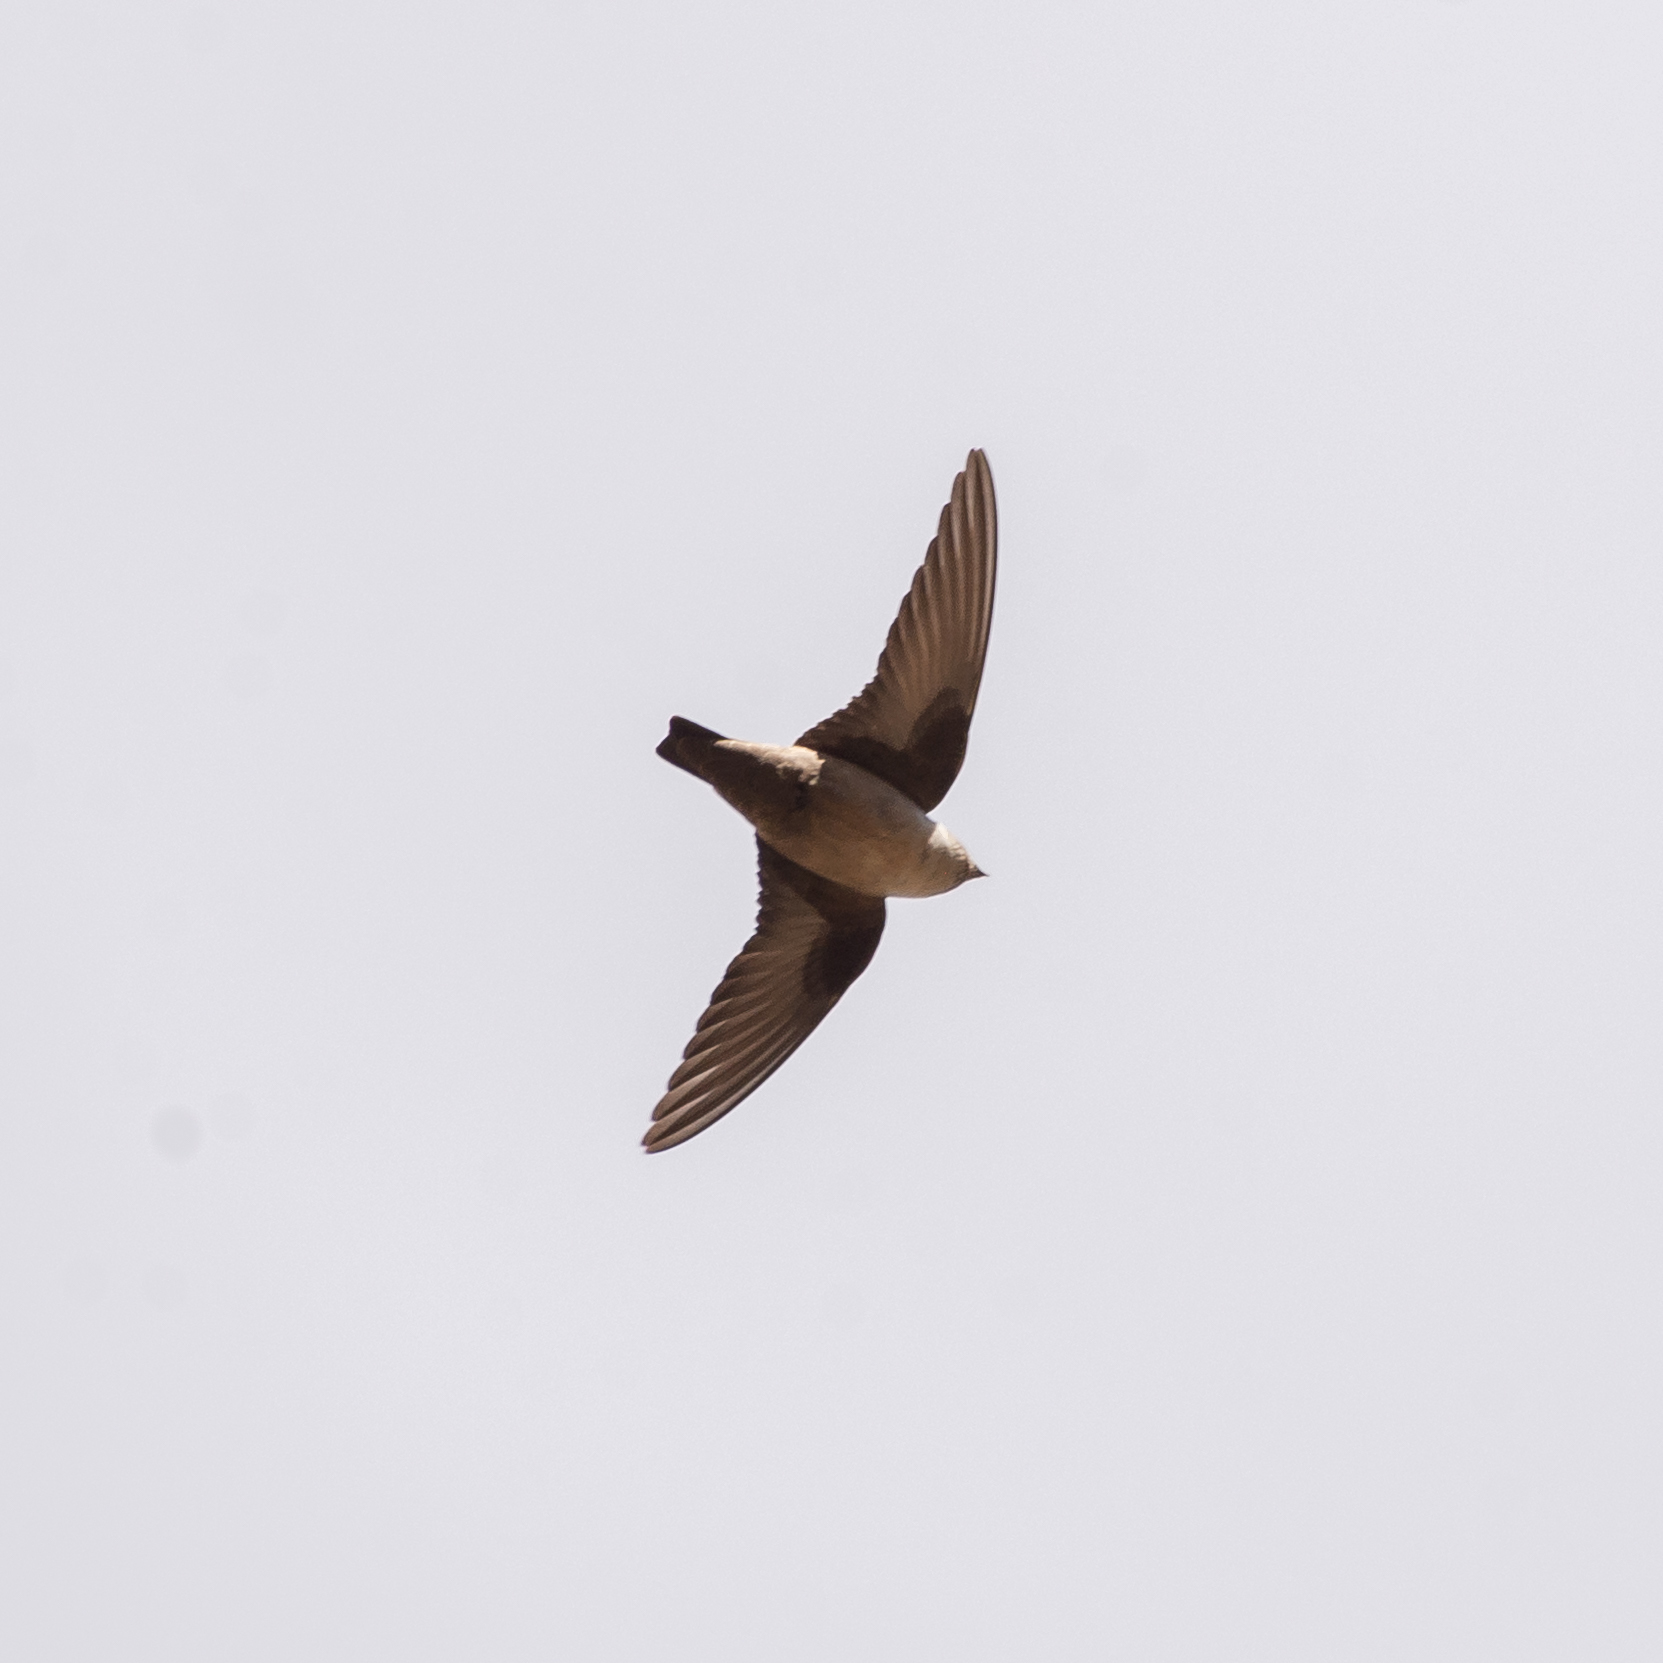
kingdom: Animalia
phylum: Chordata
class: Aves
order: Passeriformes
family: Hirundinidae
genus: Ptyonoprogne
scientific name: Ptyonoprogne rupestris
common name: Eurasian crag martin
